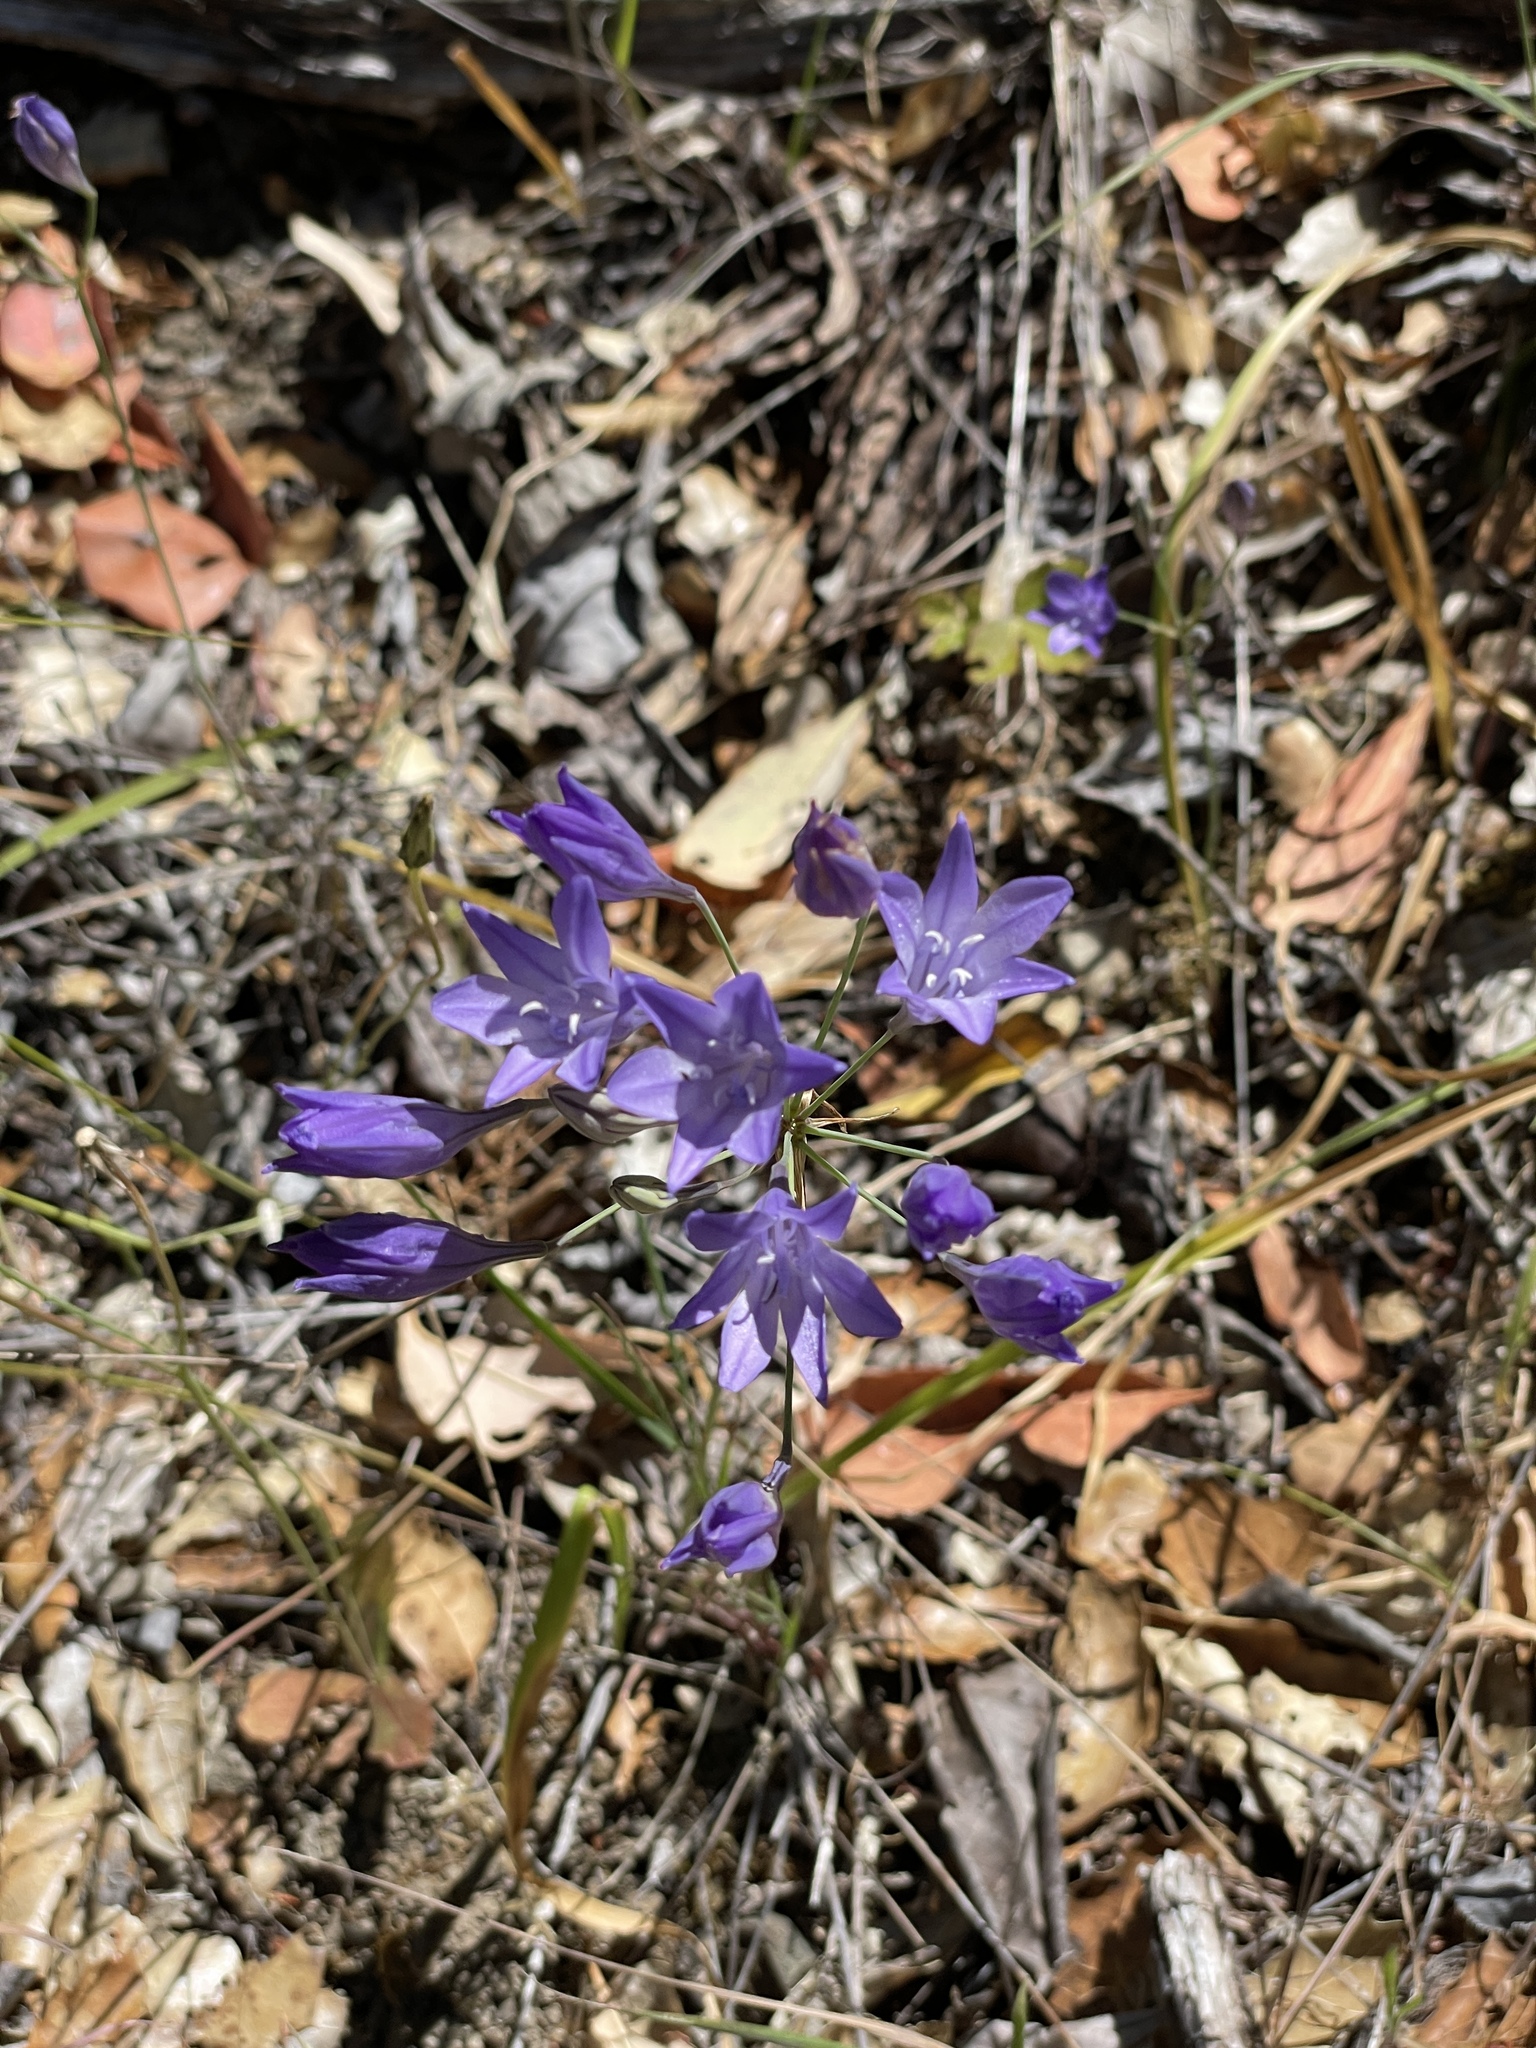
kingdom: Plantae
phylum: Tracheophyta
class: Liliopsida
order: Asparagales
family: Asparagaceae
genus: Triteleia
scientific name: Triteleia laxa
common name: Triplet-lily
